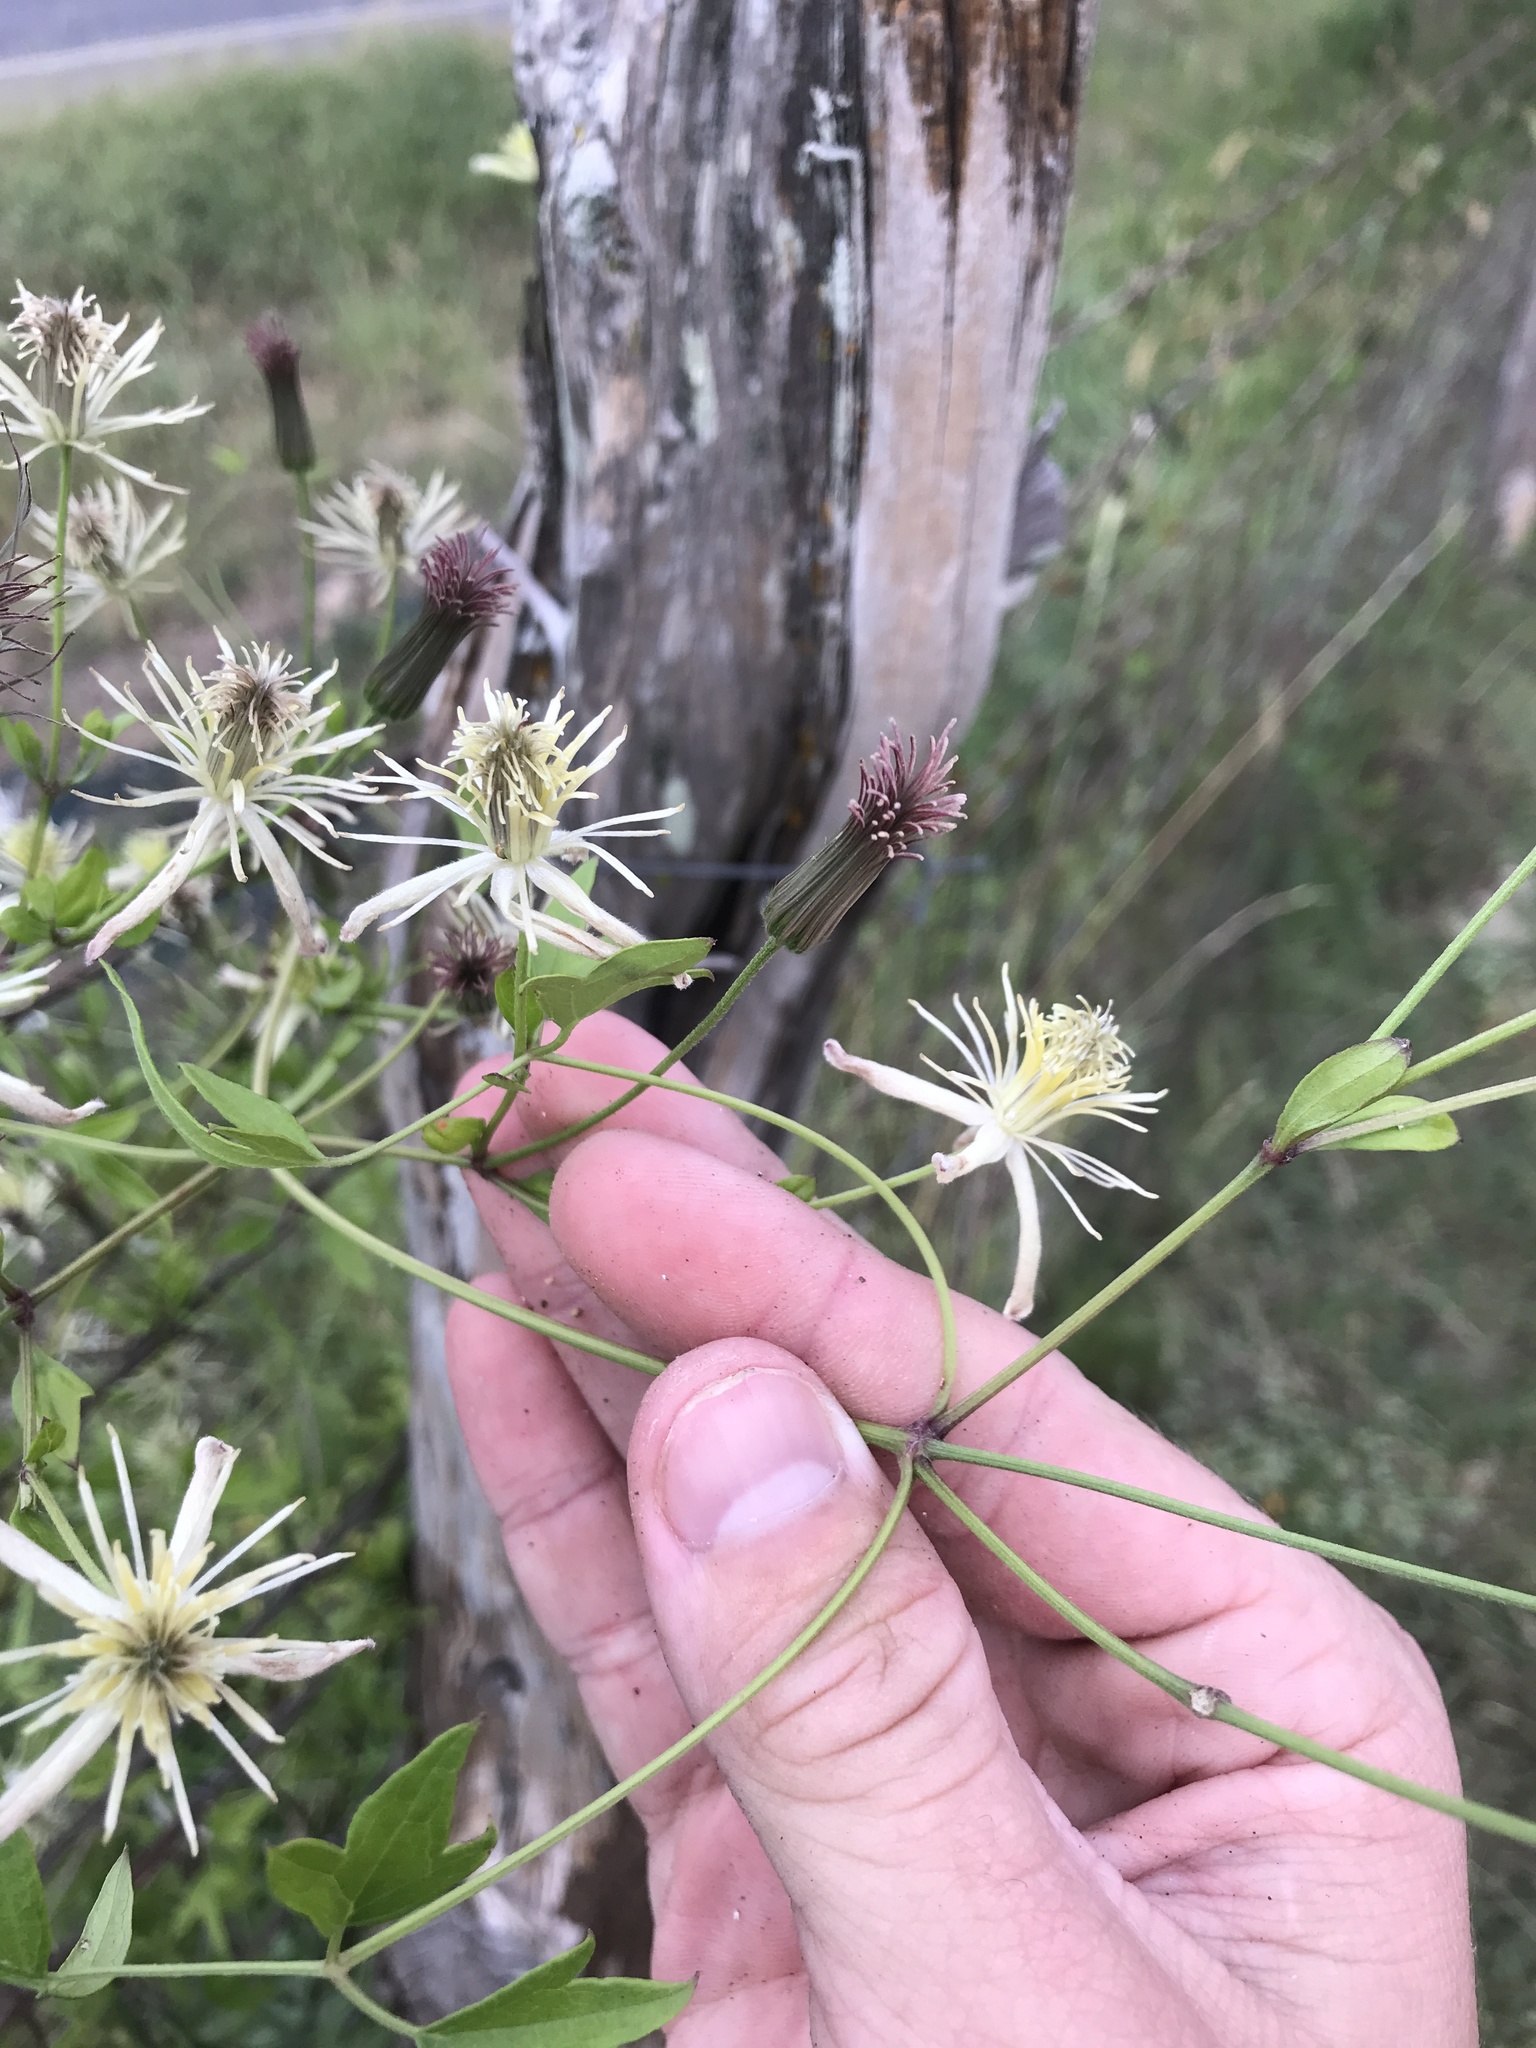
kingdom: Plantae
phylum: Tracheophyta
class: Magnoliopsida
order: Ranunculales
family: Ranunculaceae
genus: Clematis
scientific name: Clematis drummondii
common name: Texas virgin's bower
